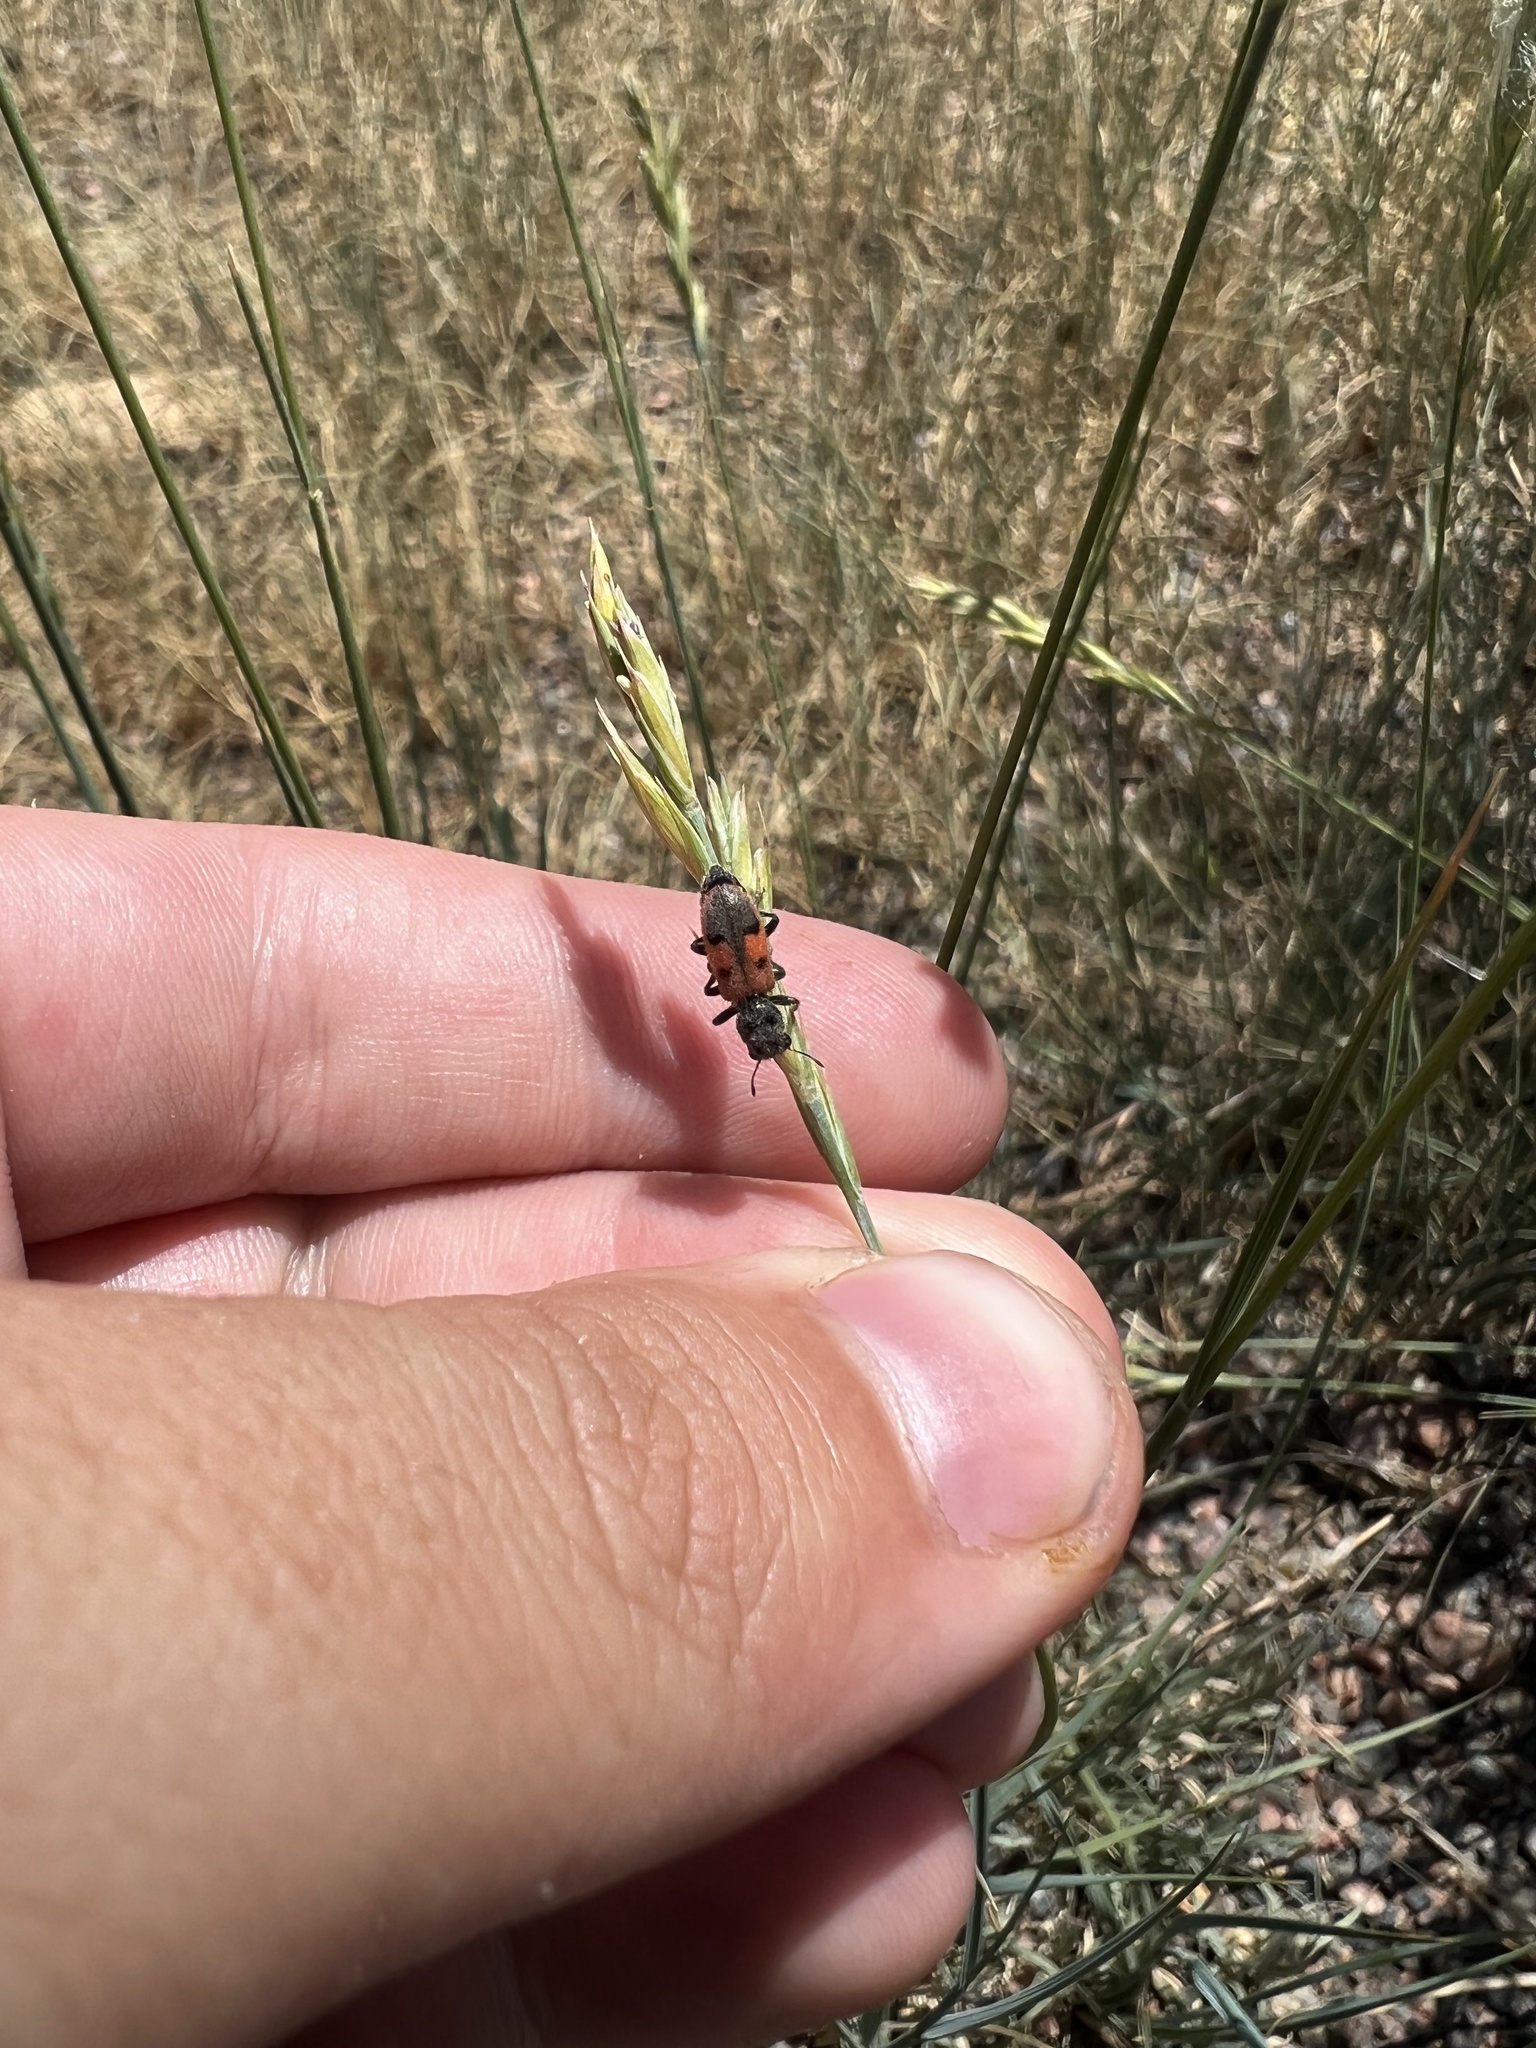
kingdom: Animalia
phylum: Arthropoda
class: Insecta
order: Coleoptera
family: Cleridae
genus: Enoclerus
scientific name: Enoclerus cordifer
